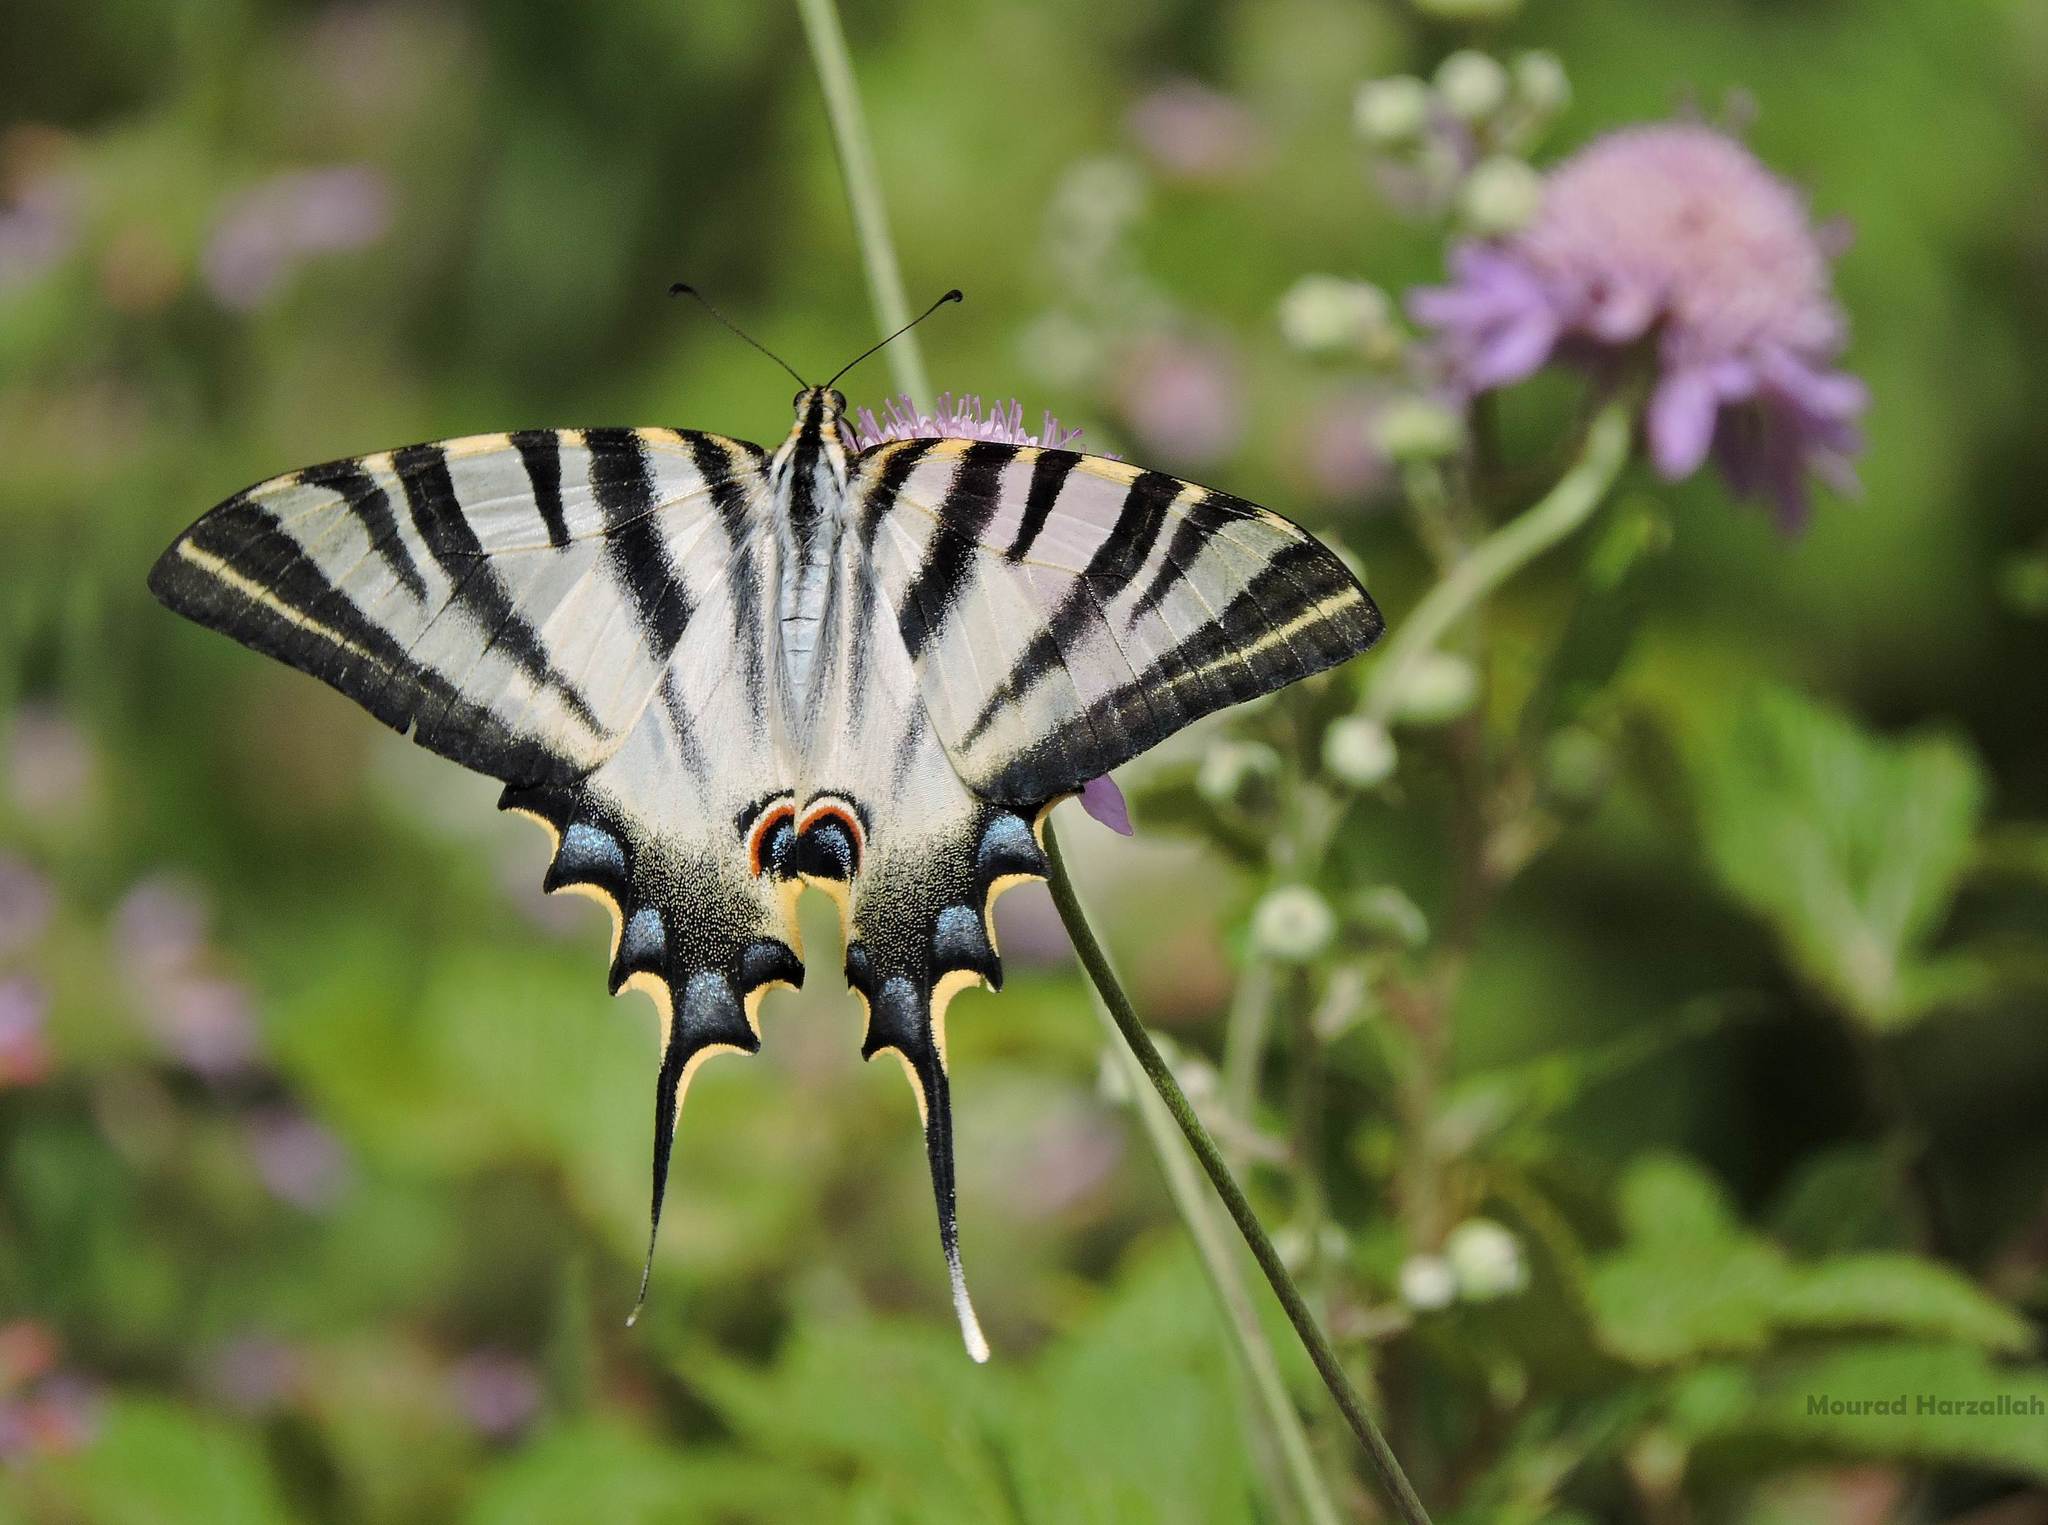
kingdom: Animalia
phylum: Arthropoda
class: Insecta
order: Lepidoptera
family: Papilionidae
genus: Iphiclides
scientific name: Iphiclides feisthamelii
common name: Iberian scarce swallowtail
